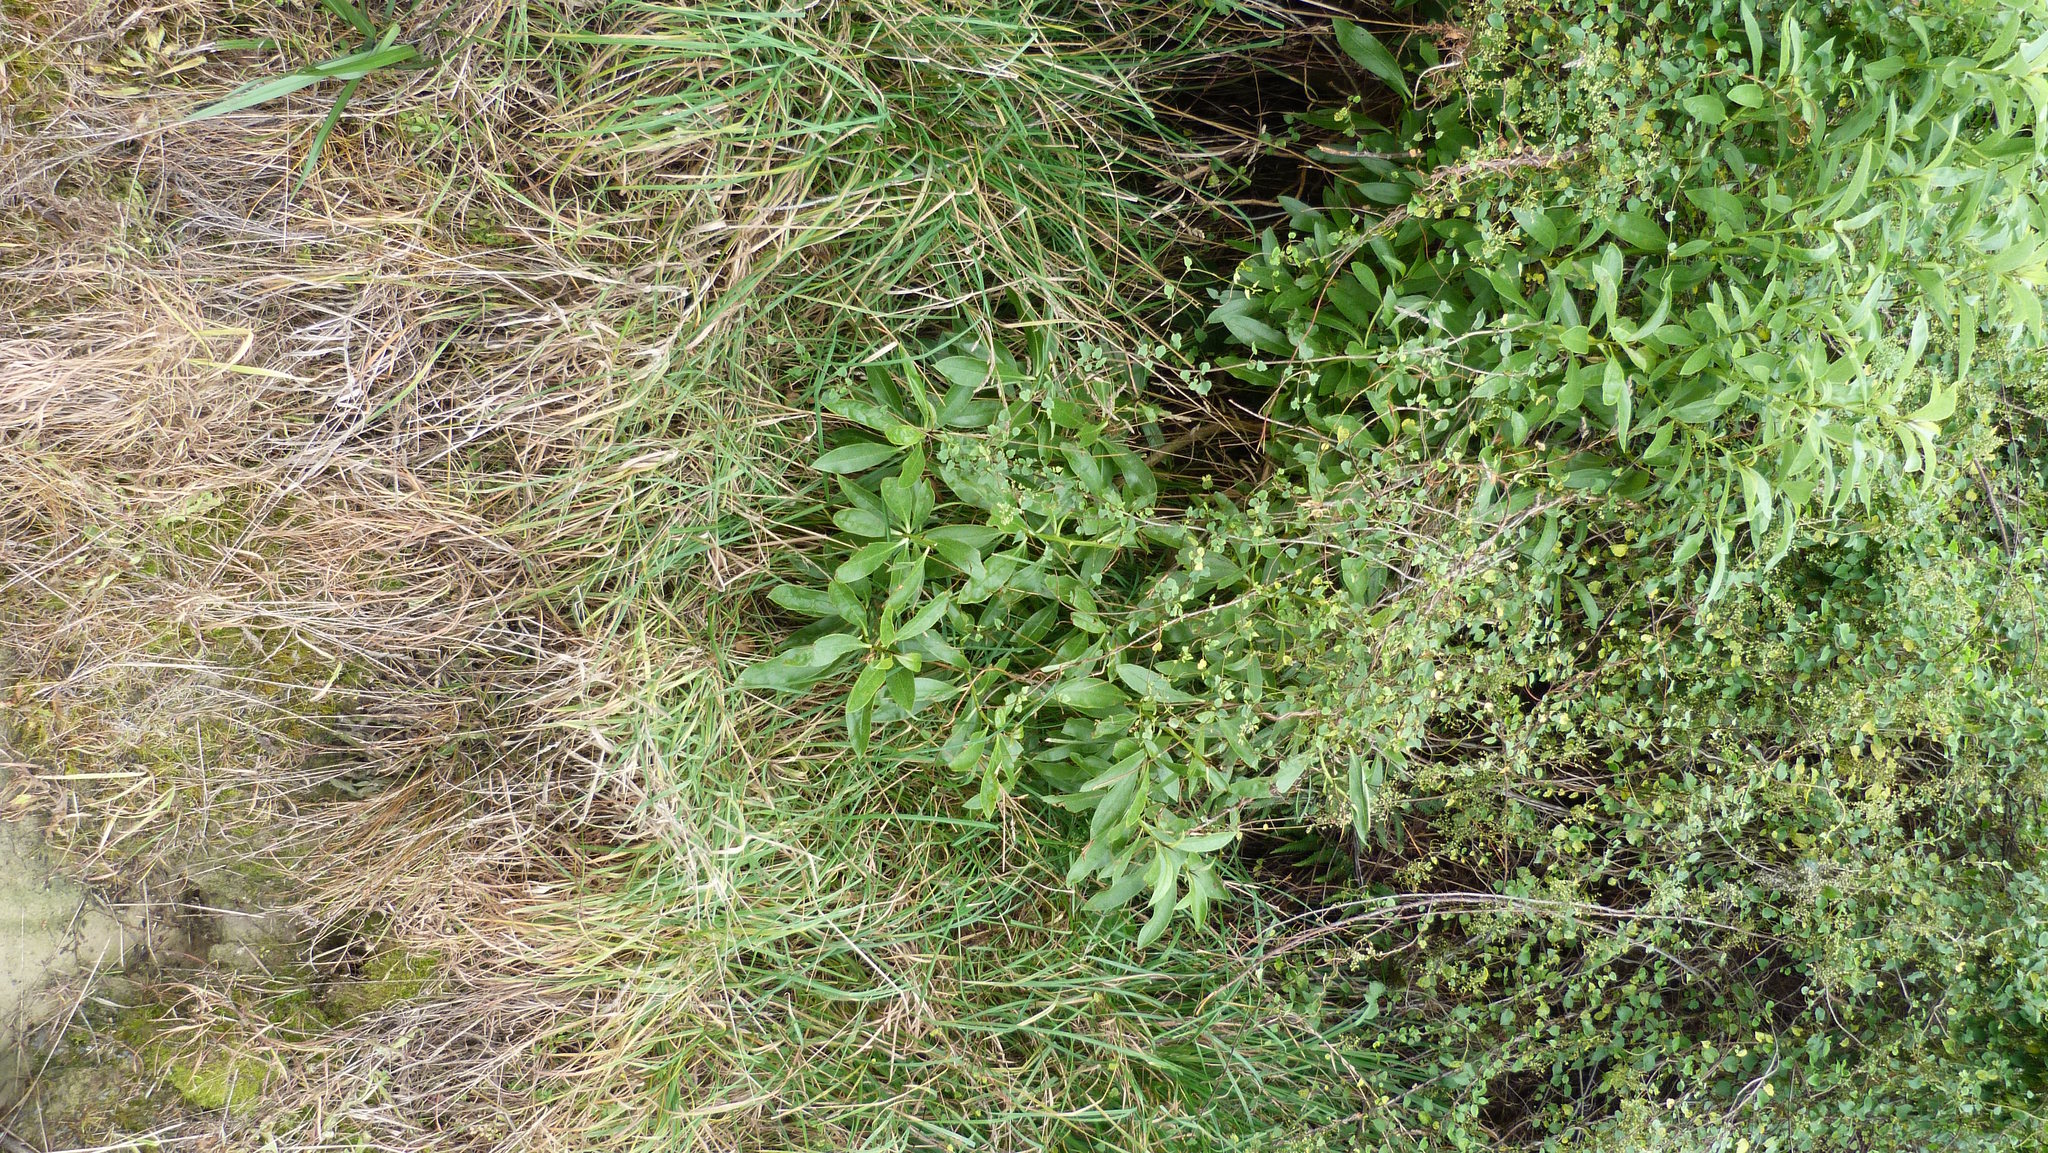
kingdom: Plantae
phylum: Tracheophyta
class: Magnoliopsida
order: Lamiales
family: Scrophulariaceae
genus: Myoporum
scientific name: Myoporum laetum
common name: Ngaio tree
